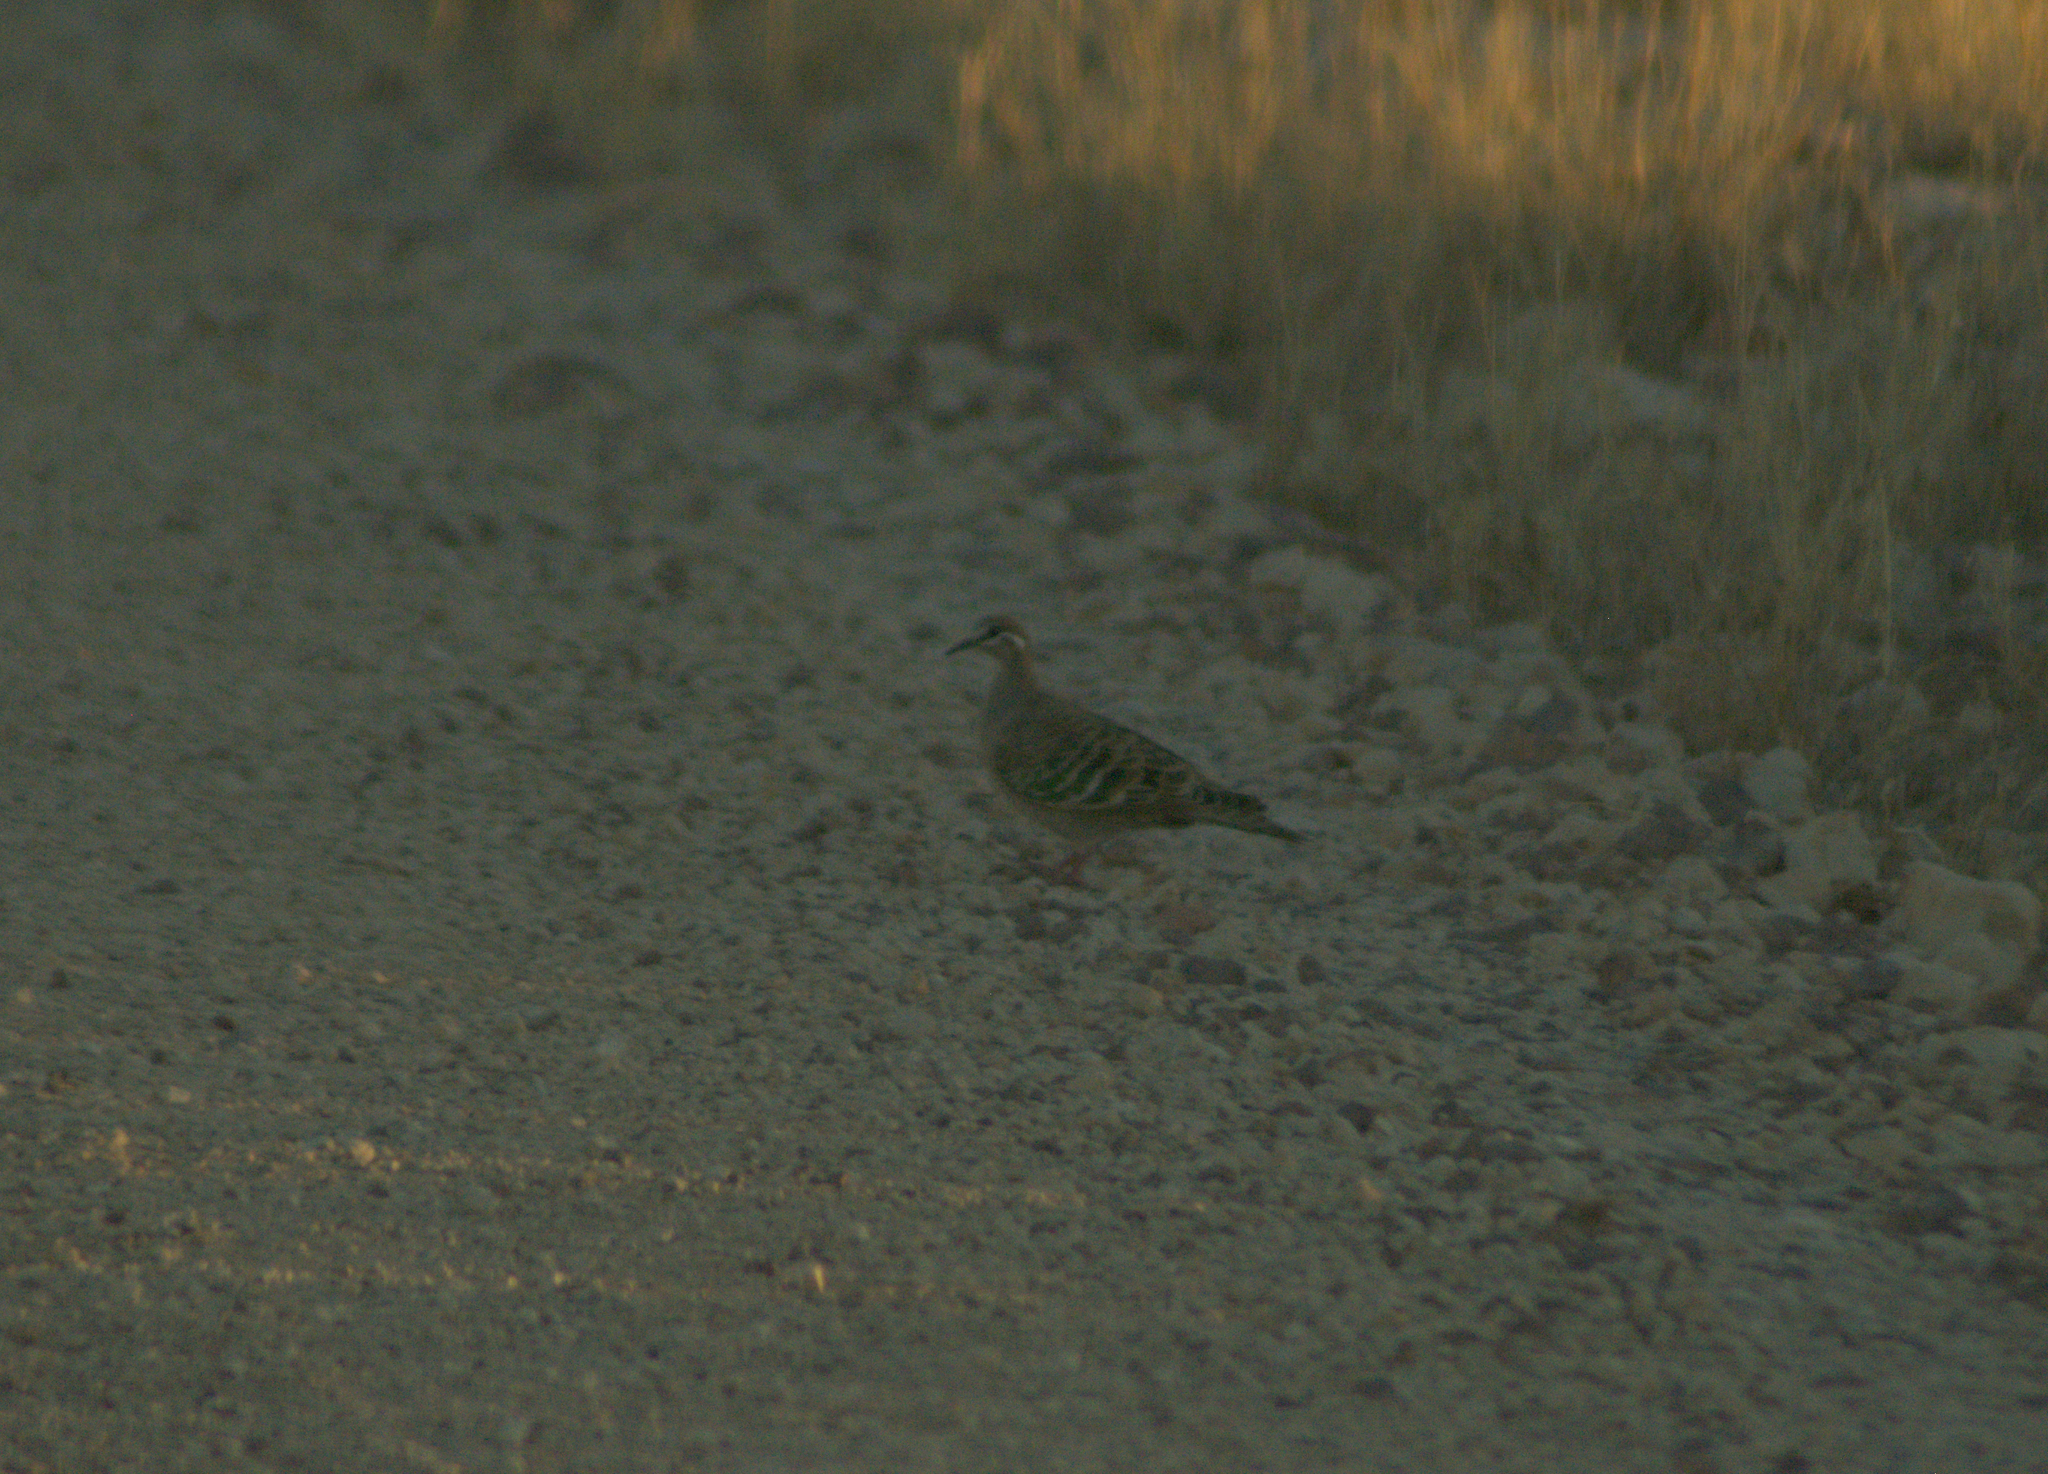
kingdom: Animalia
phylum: Chordata
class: Aves
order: Columbiformes
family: Columbidae
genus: Phaps
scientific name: Phaps chalcoptera
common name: Common bronzewing
